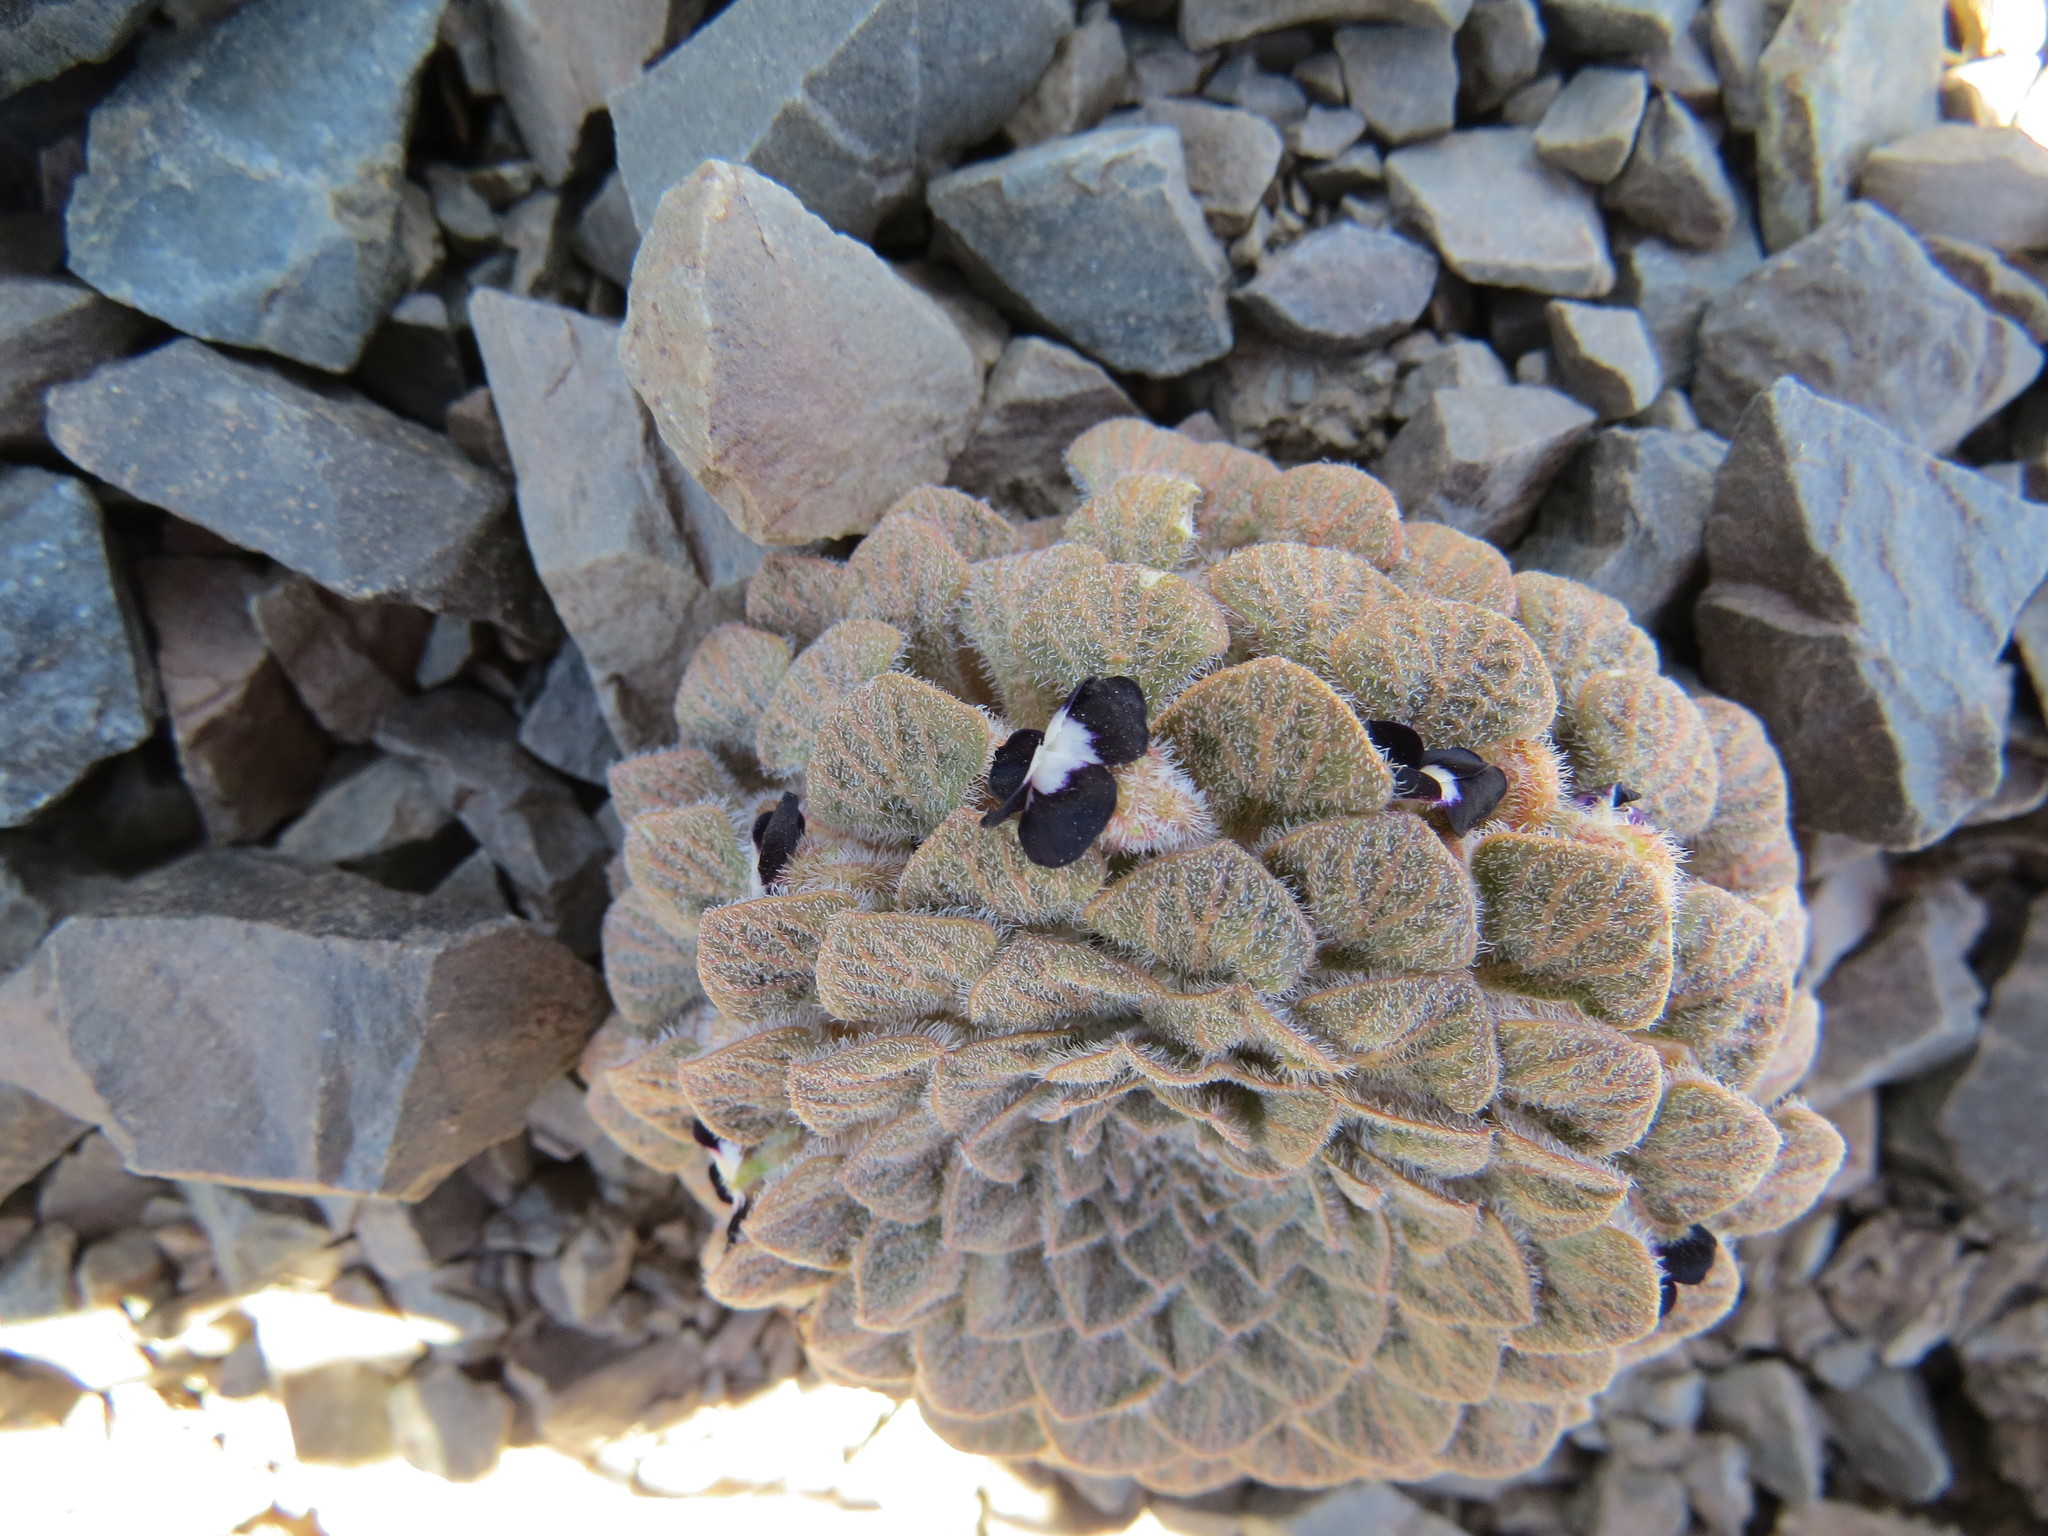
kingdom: Plantae
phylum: Tracheophyta
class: Magnoliopsida
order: Malpighiales
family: Violaceae
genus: Viola
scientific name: Viola montagnei
